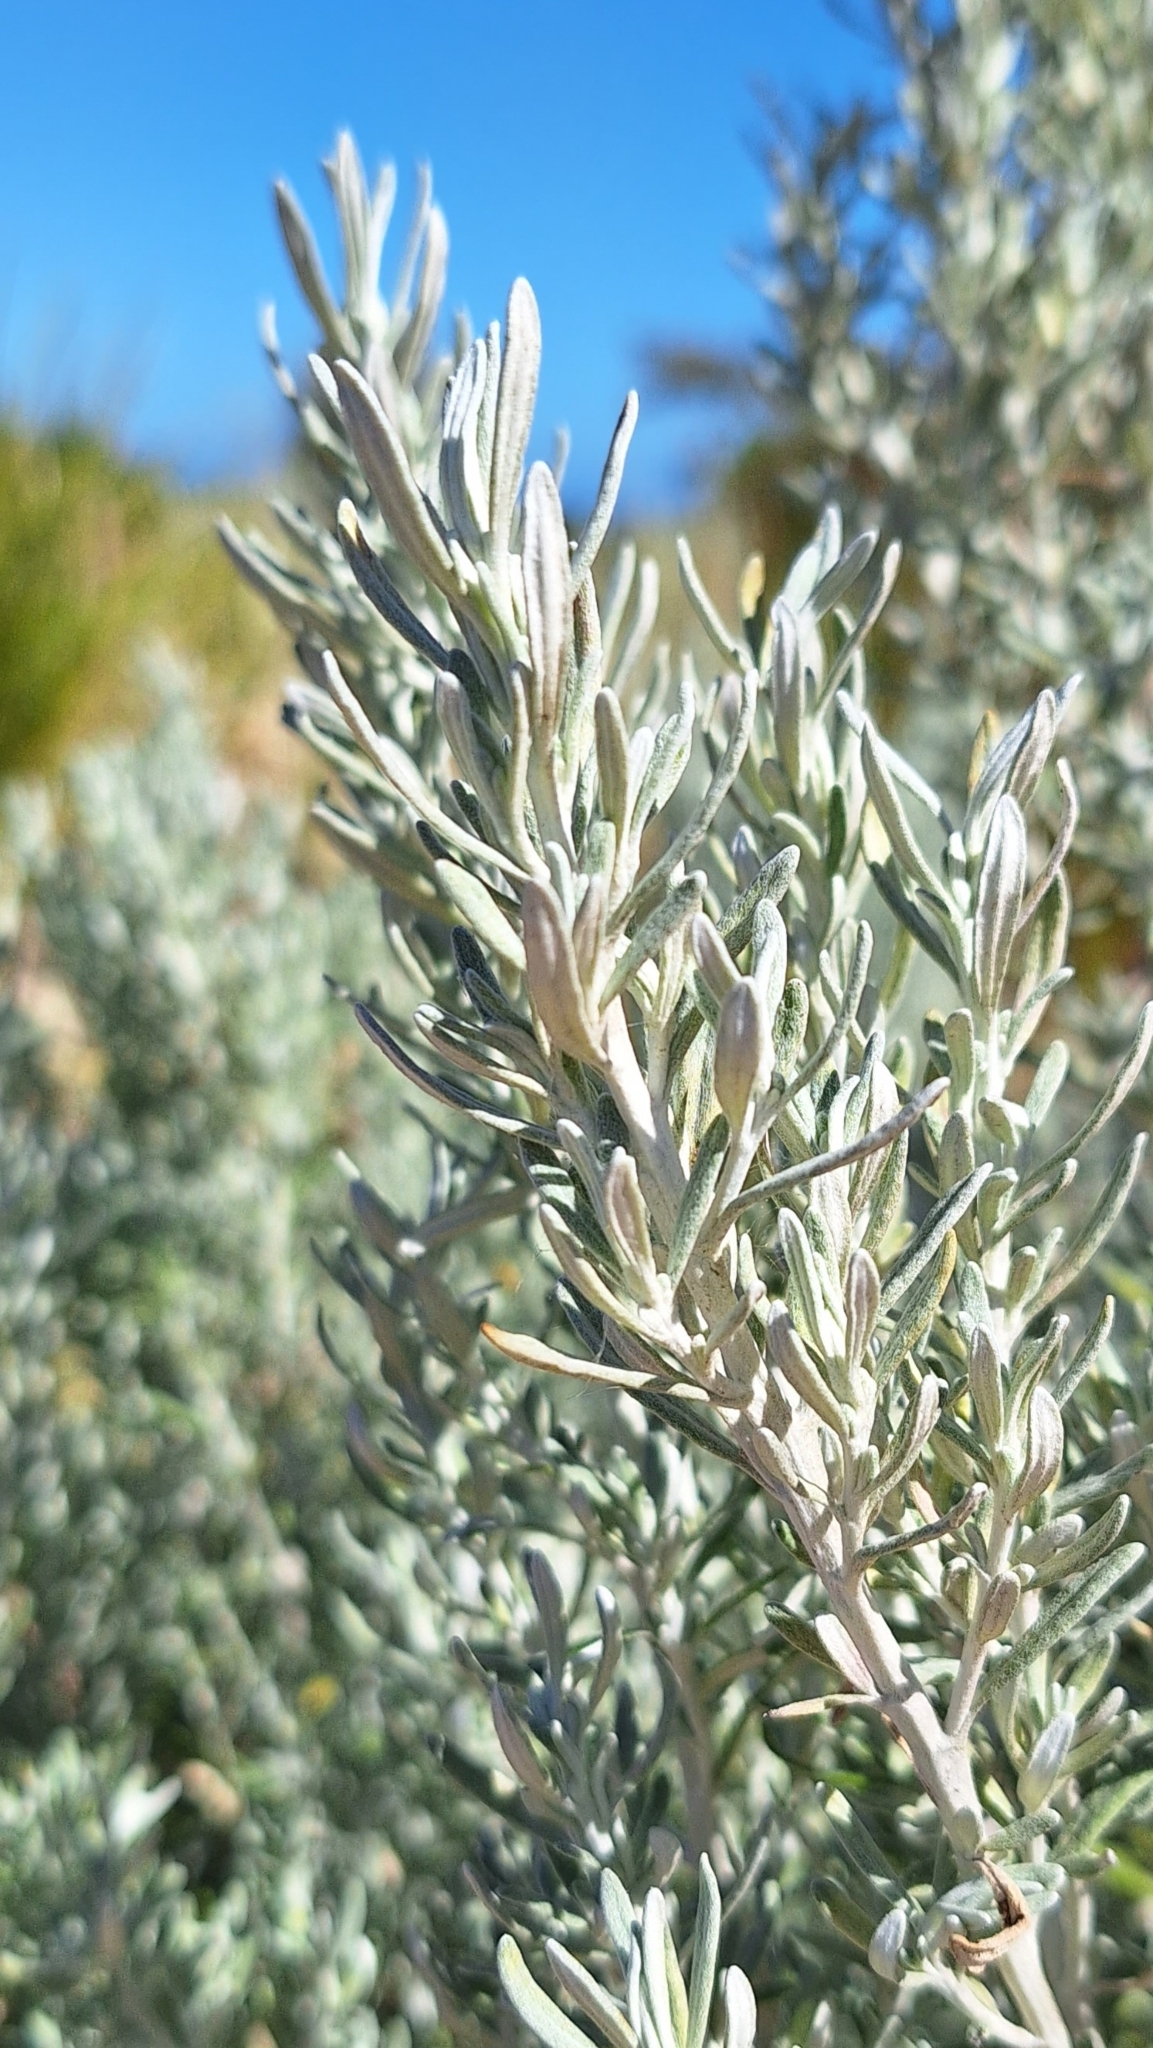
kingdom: Plantae
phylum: Tracheophyta
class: Magnoliopsida
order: Asterales
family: Asteraceae
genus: Olearia
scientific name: Olearia axillaris
